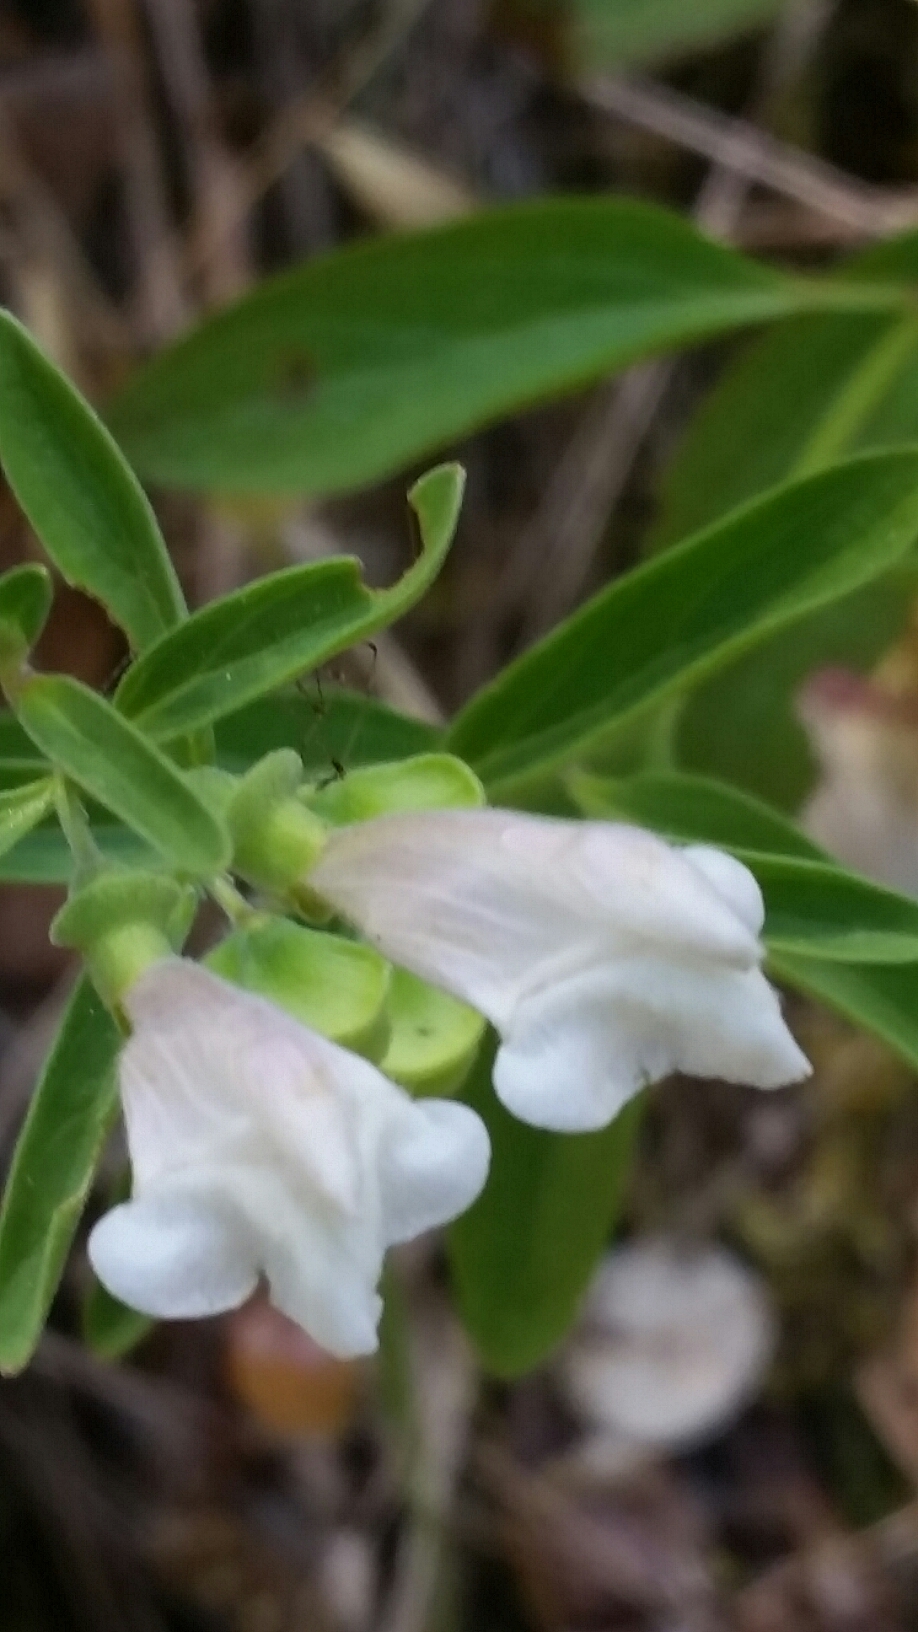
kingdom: Plantae
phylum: Tracheophyta
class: Magnoliopsida
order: Lamiales
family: Lamiaceae
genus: Scutellaria
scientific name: Scutellaria californica
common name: California scullcap
